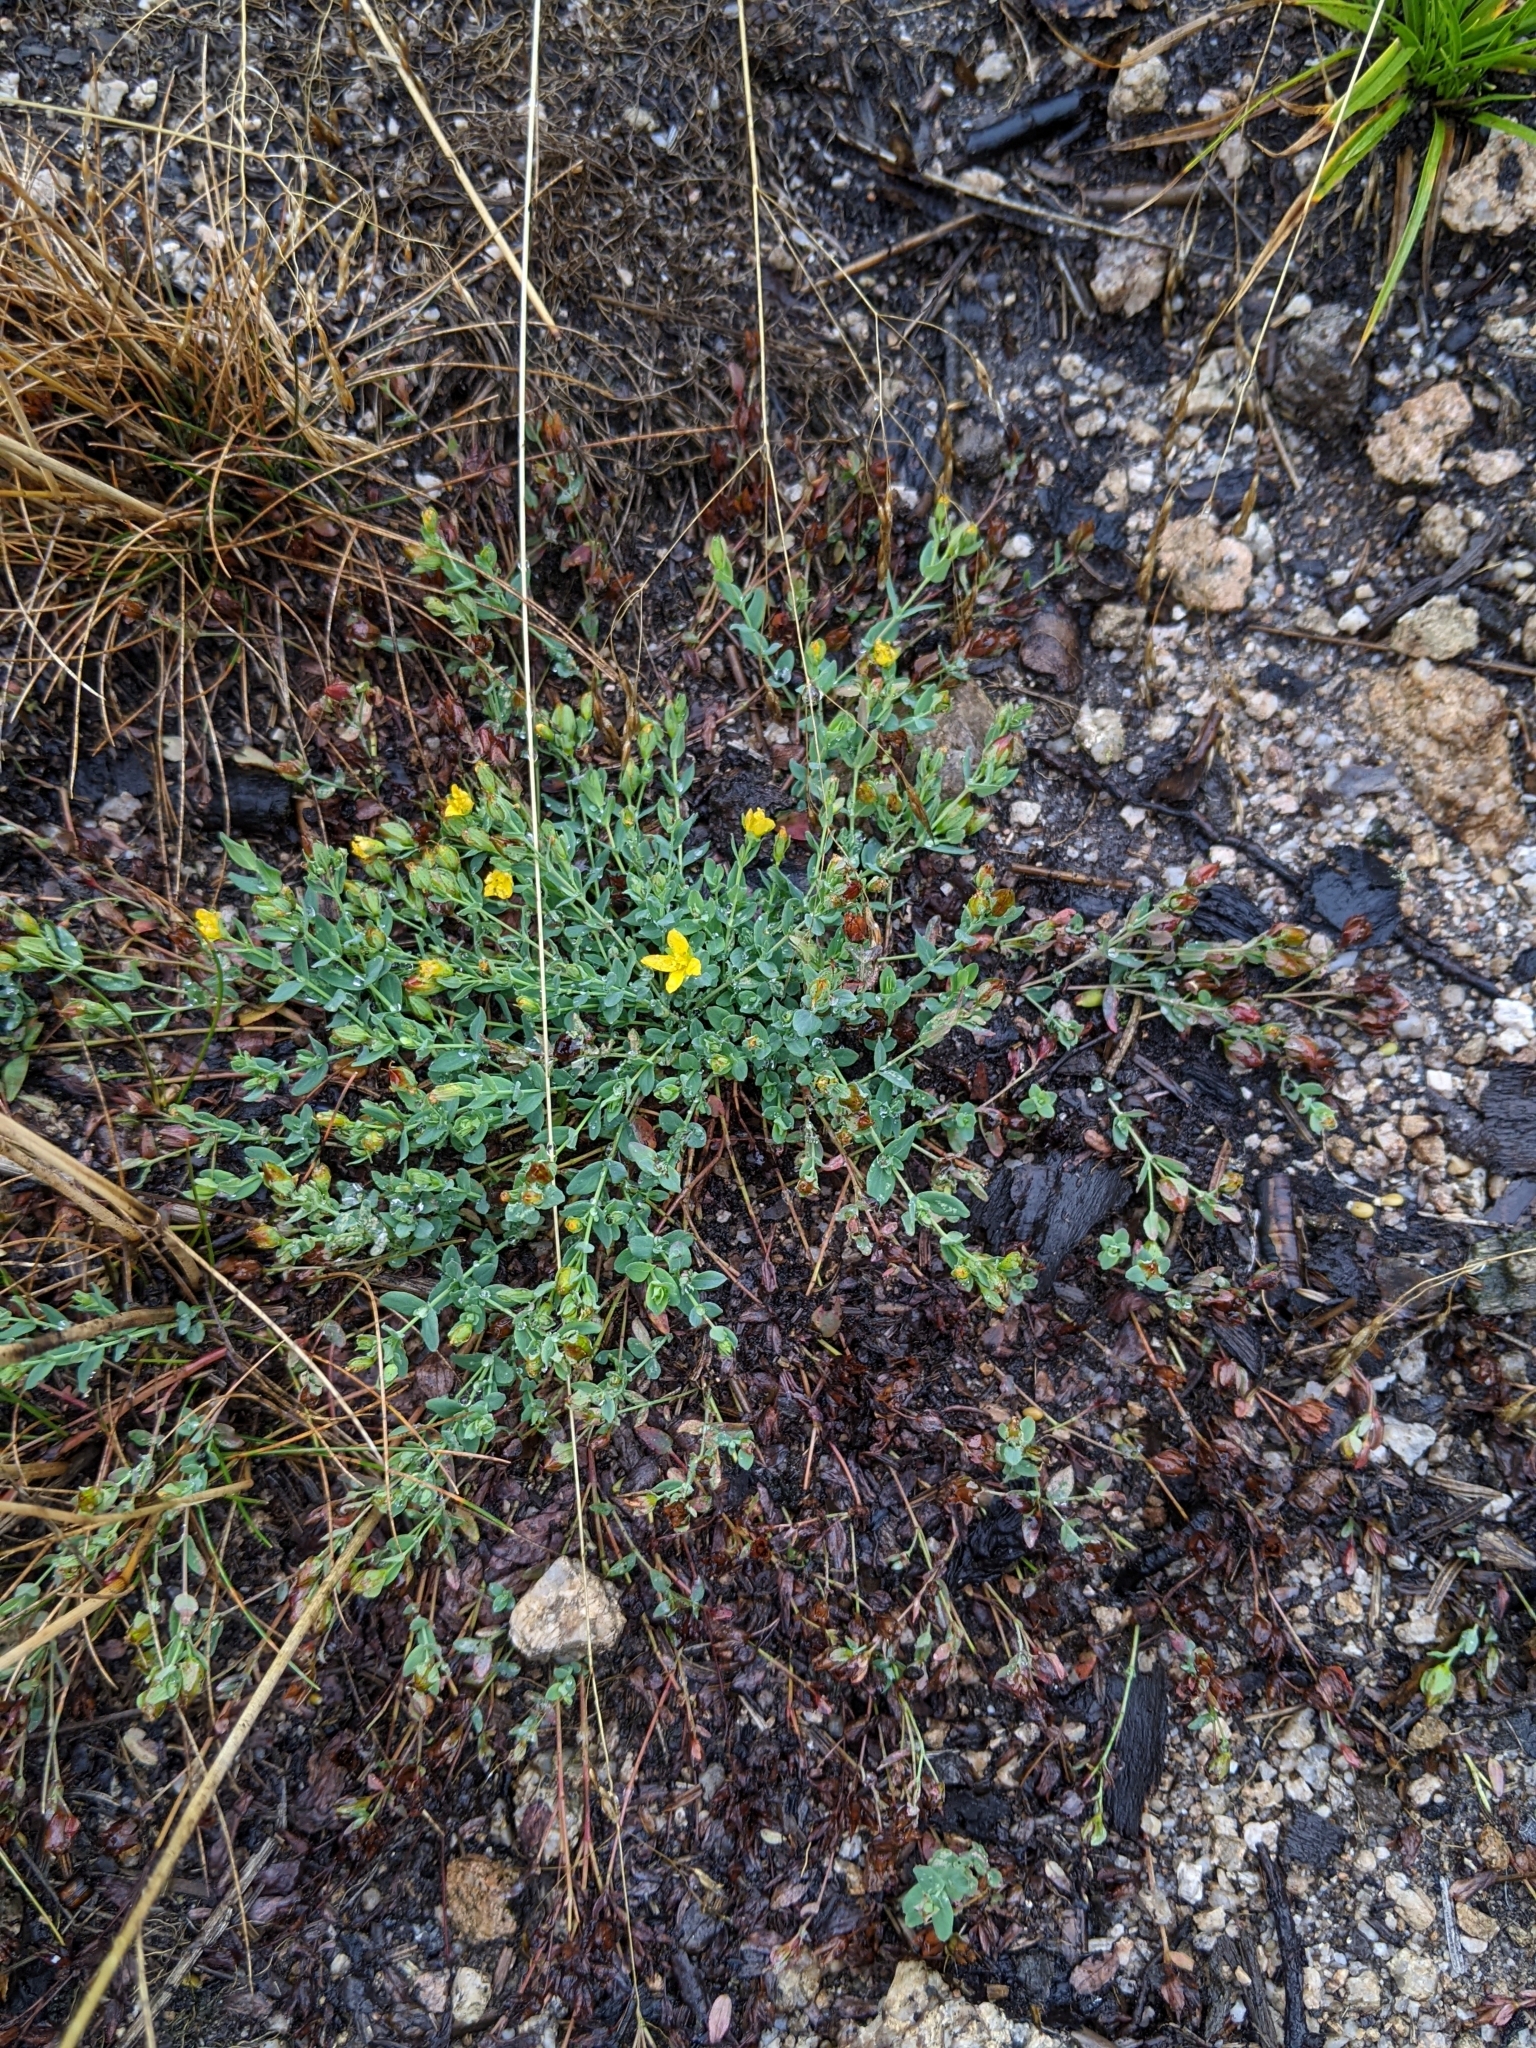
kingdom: Plantae
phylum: Tracheophyta
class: Magnoliopsida
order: Malpighiales
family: Hypericaceae
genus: Hypericum
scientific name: Hypericum humifusum
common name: Trailing st. john's-wort
